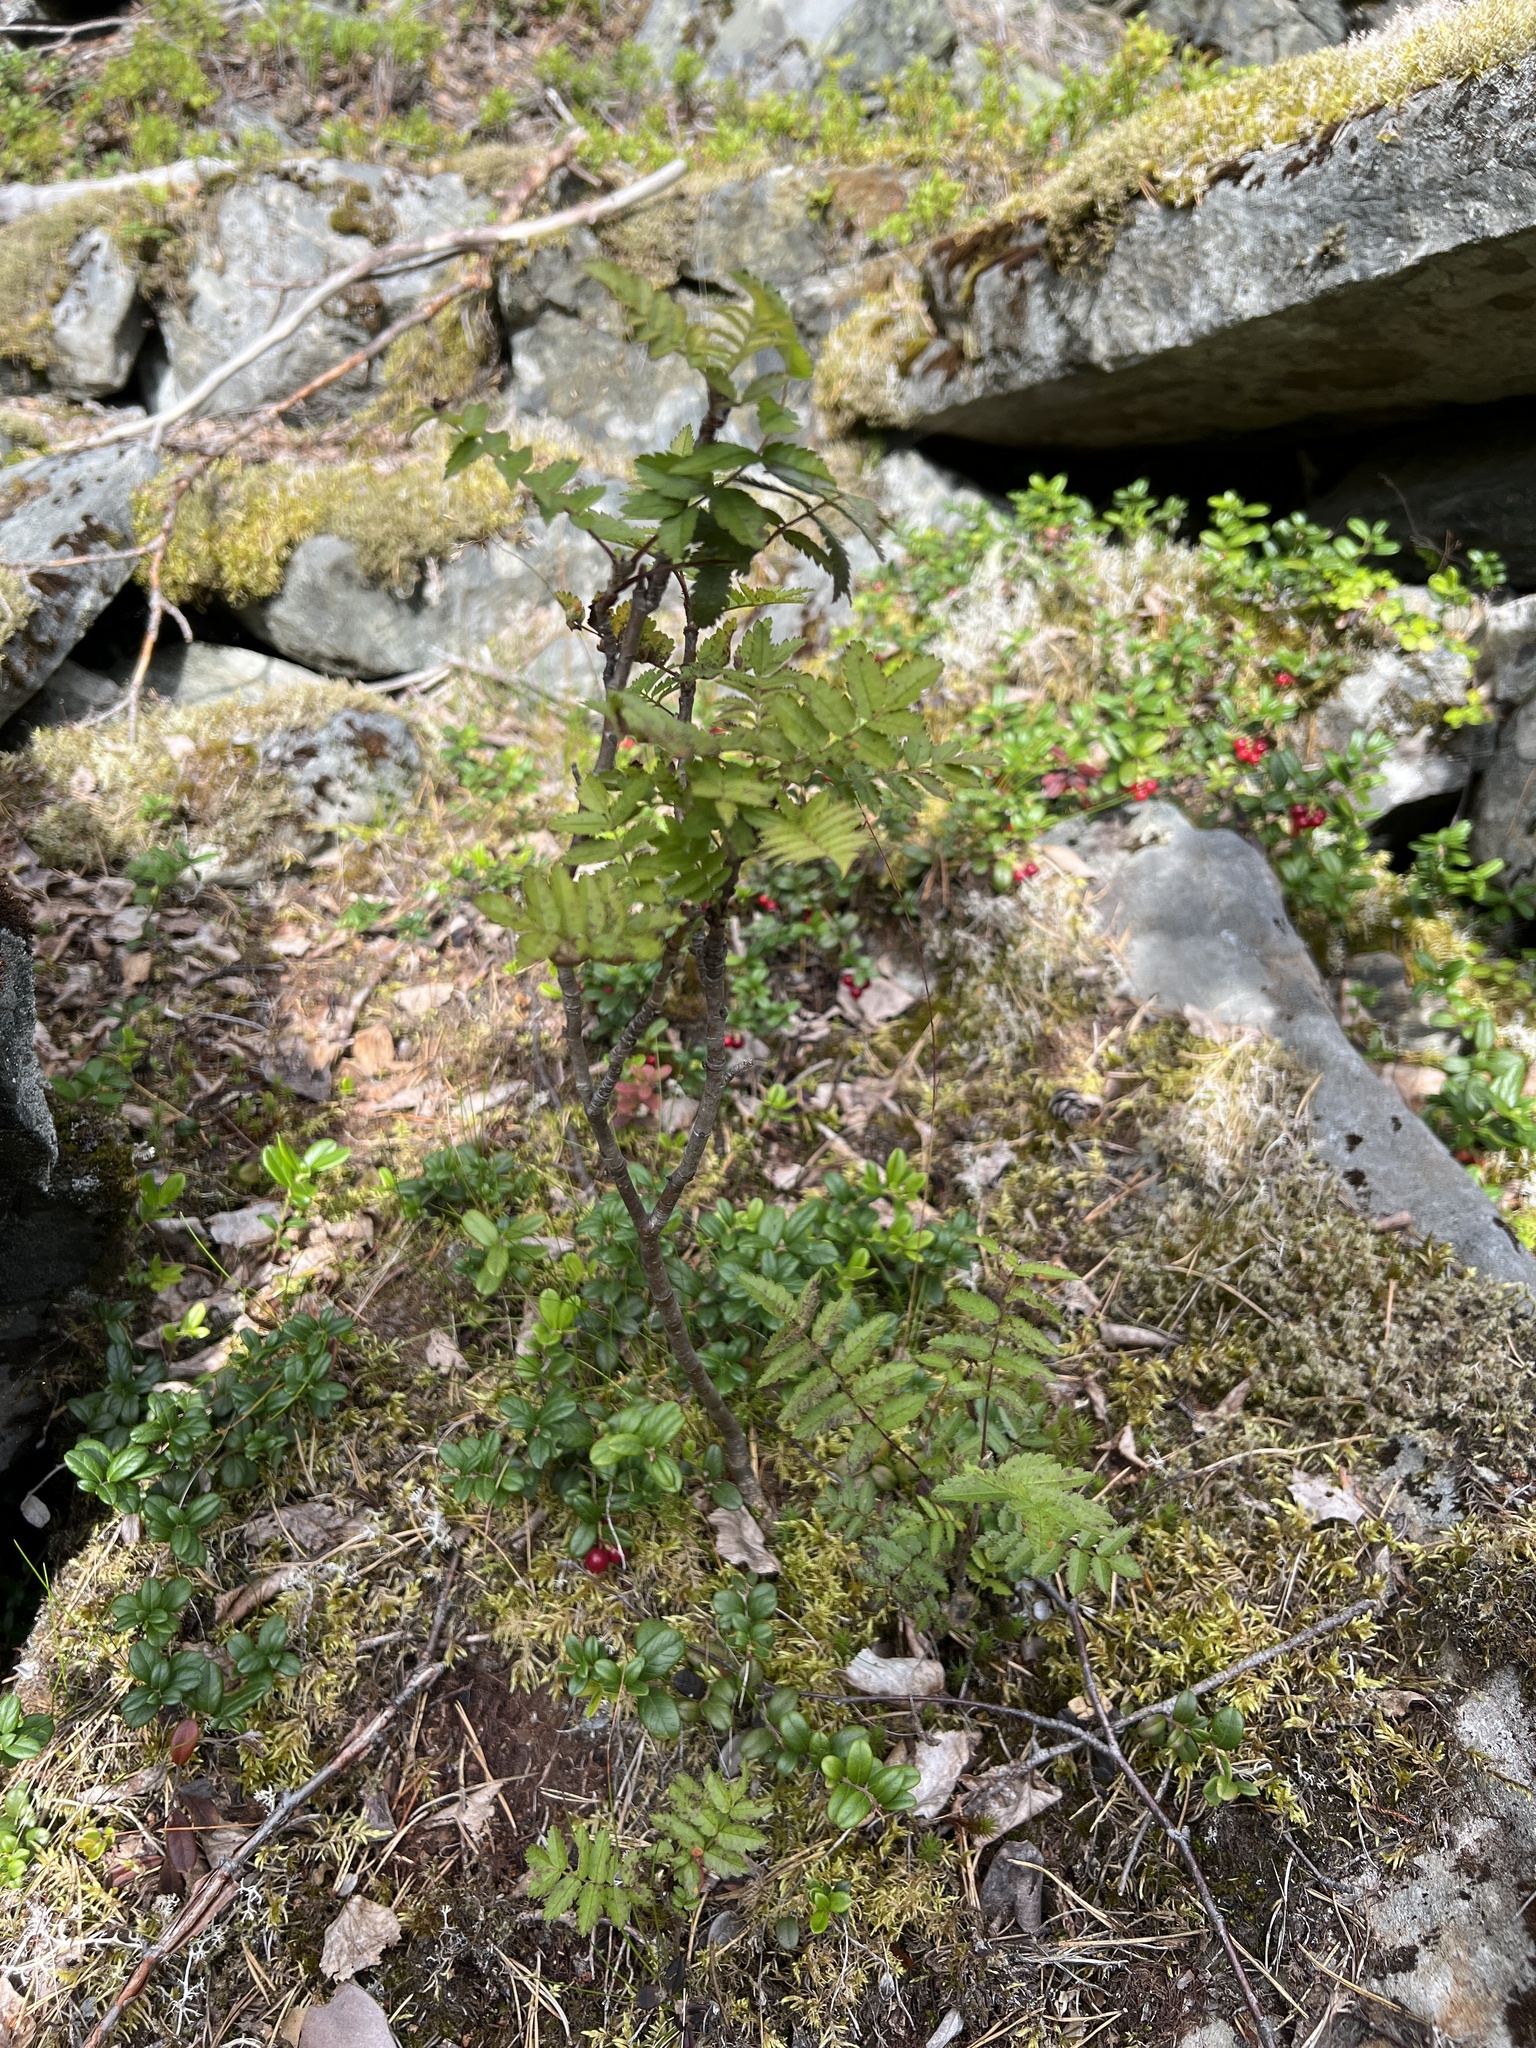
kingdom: Plantae
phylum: Tracheophyta
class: Magnoliopsida
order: Rosales
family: Rosaceae
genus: Sorbus
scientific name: Sorbus aucuparia
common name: Rowan
